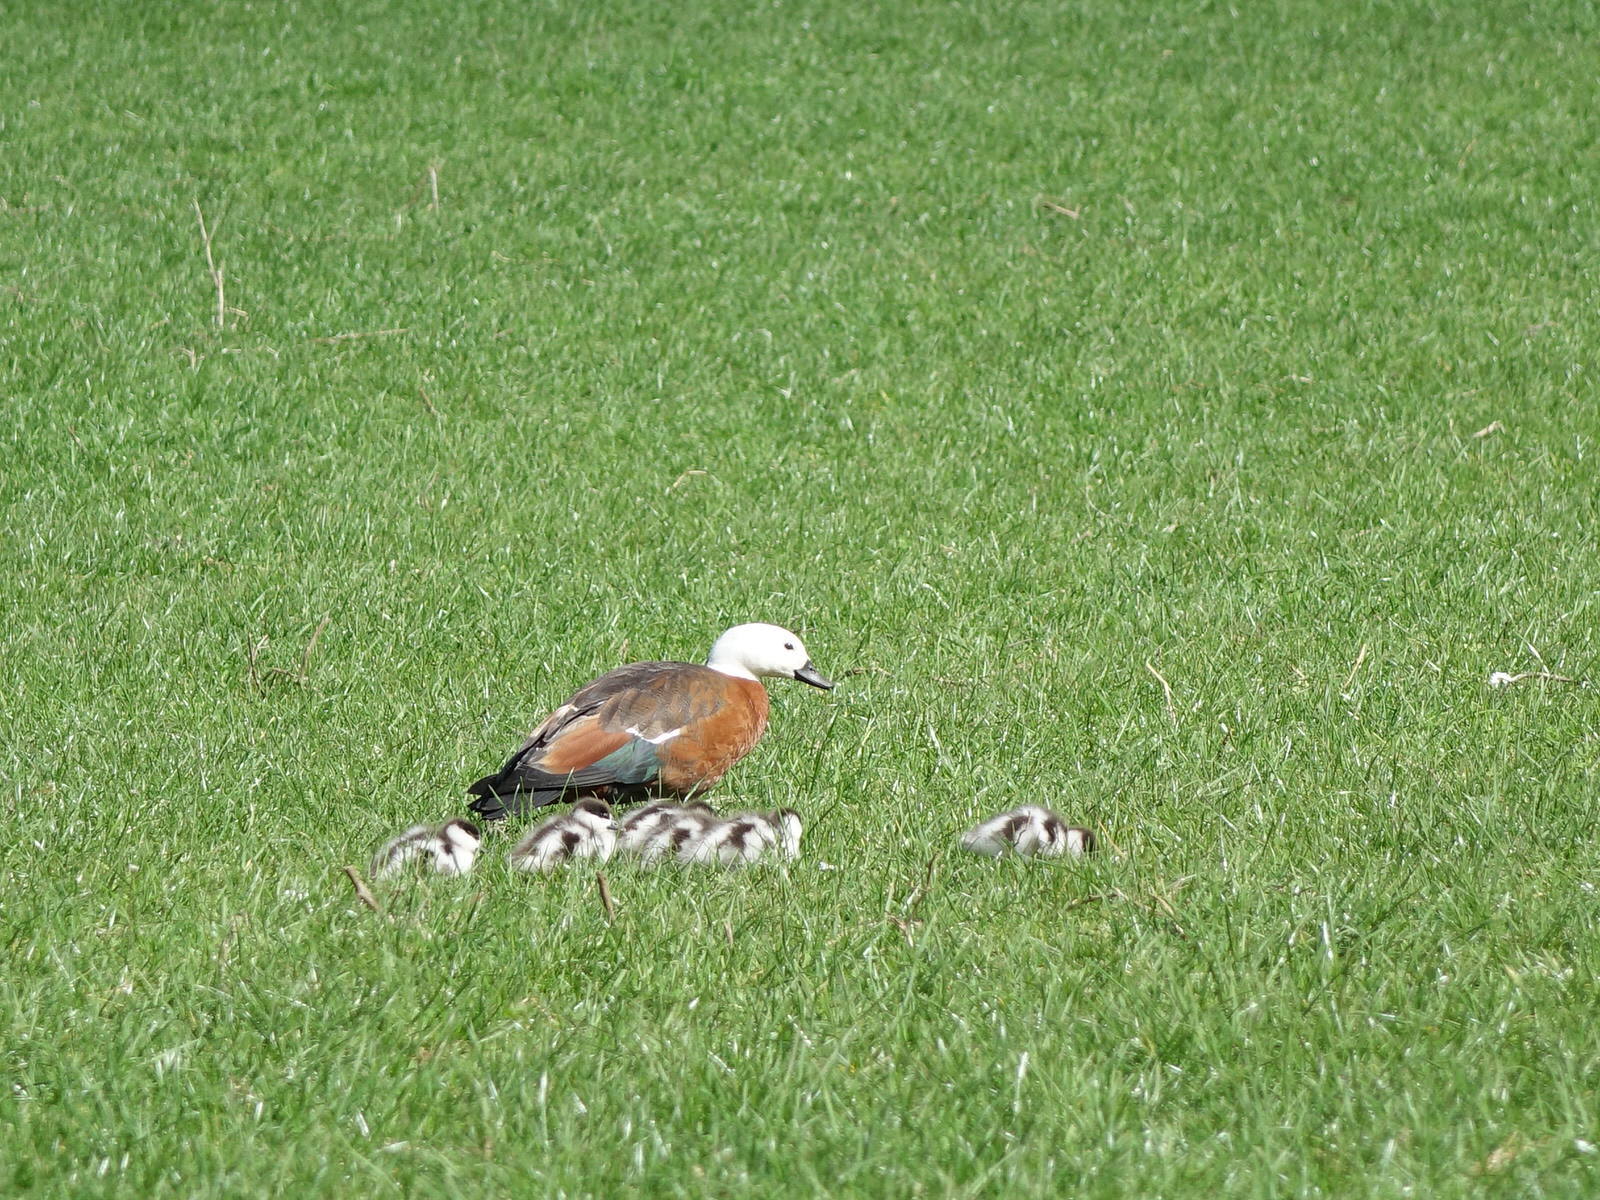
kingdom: Animalia
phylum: Chordata
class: Aves
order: Anseriformes
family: Anatidae
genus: Tadorna
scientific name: Tadorna variegata
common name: Paradise shelduck
